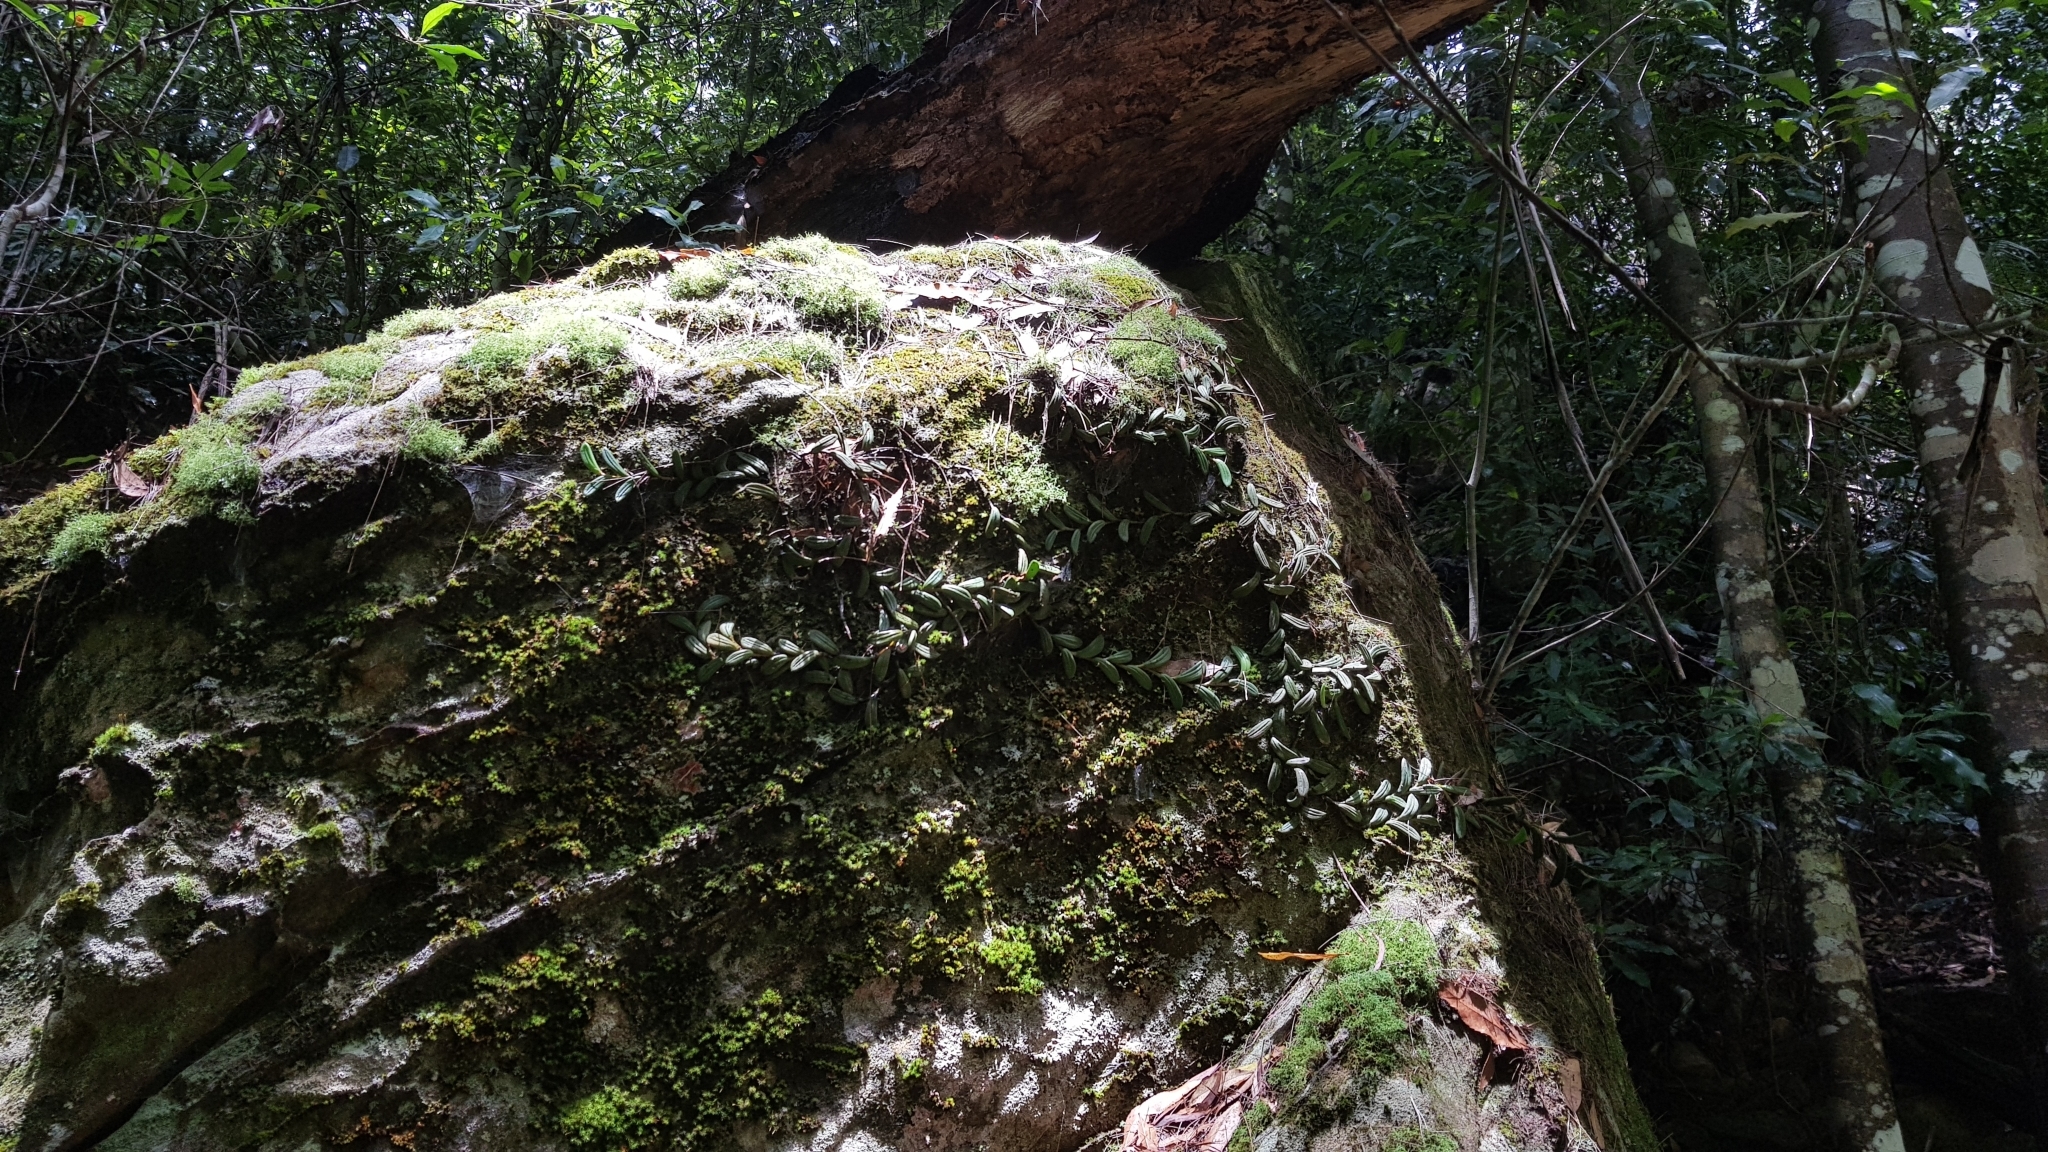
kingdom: Plantae
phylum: Tracheophyta
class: Liliopsida
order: Asparagales
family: Orchidaceae
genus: Dendrobium
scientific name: Dendrobium linguiforme
